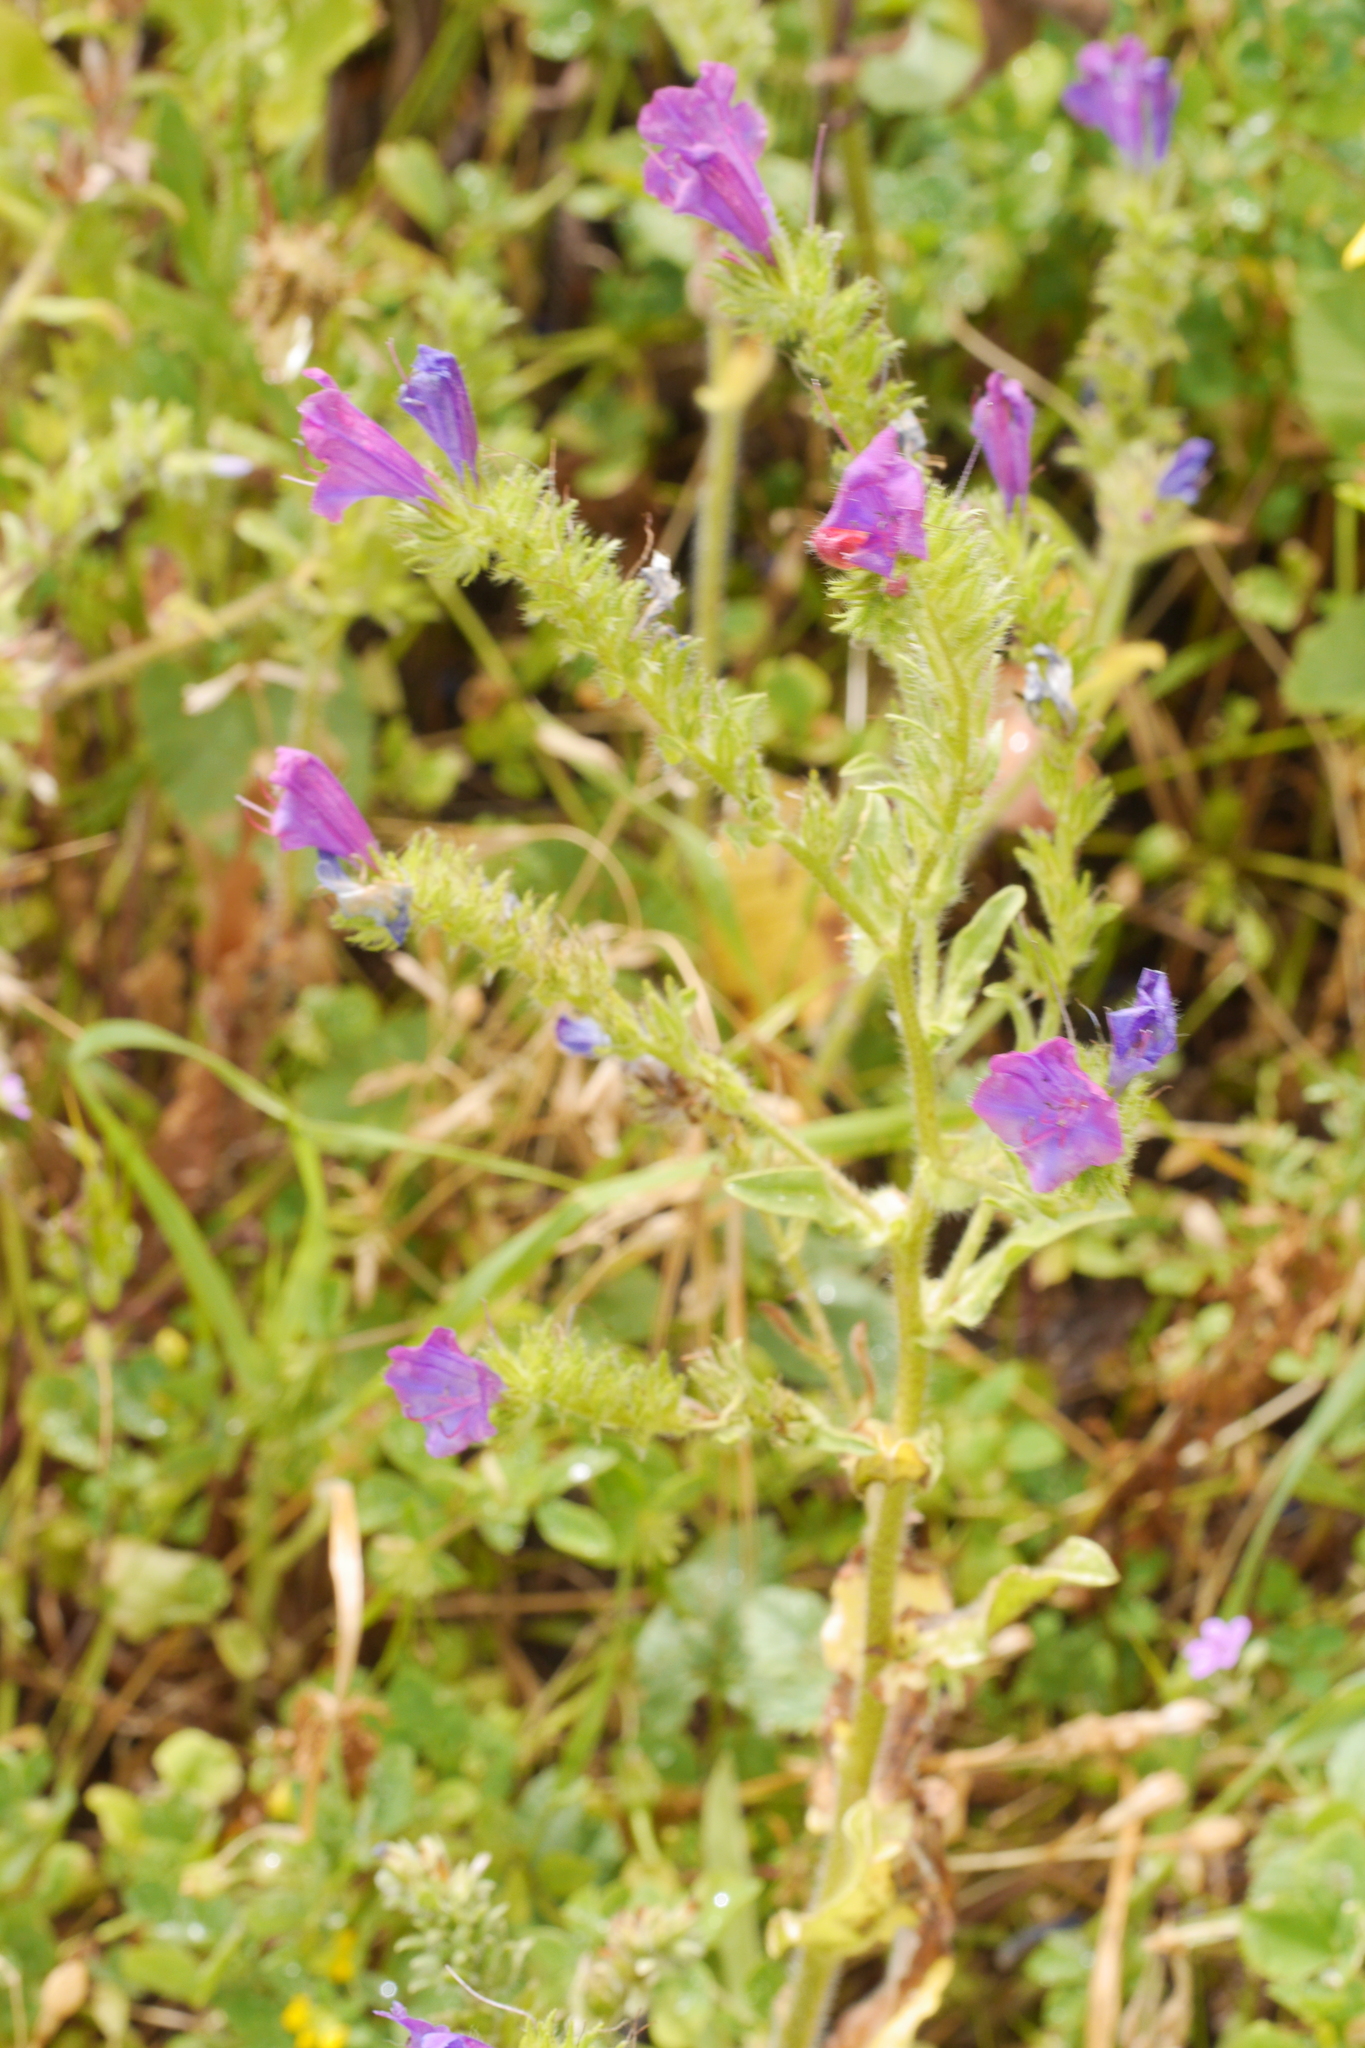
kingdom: Plantae
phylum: Tracheophyta
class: Magnoliopsida
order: Boraginales
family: Boraginaceae
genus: Echium
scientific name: Echium plantagineum
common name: Purple viper's-bugloss
